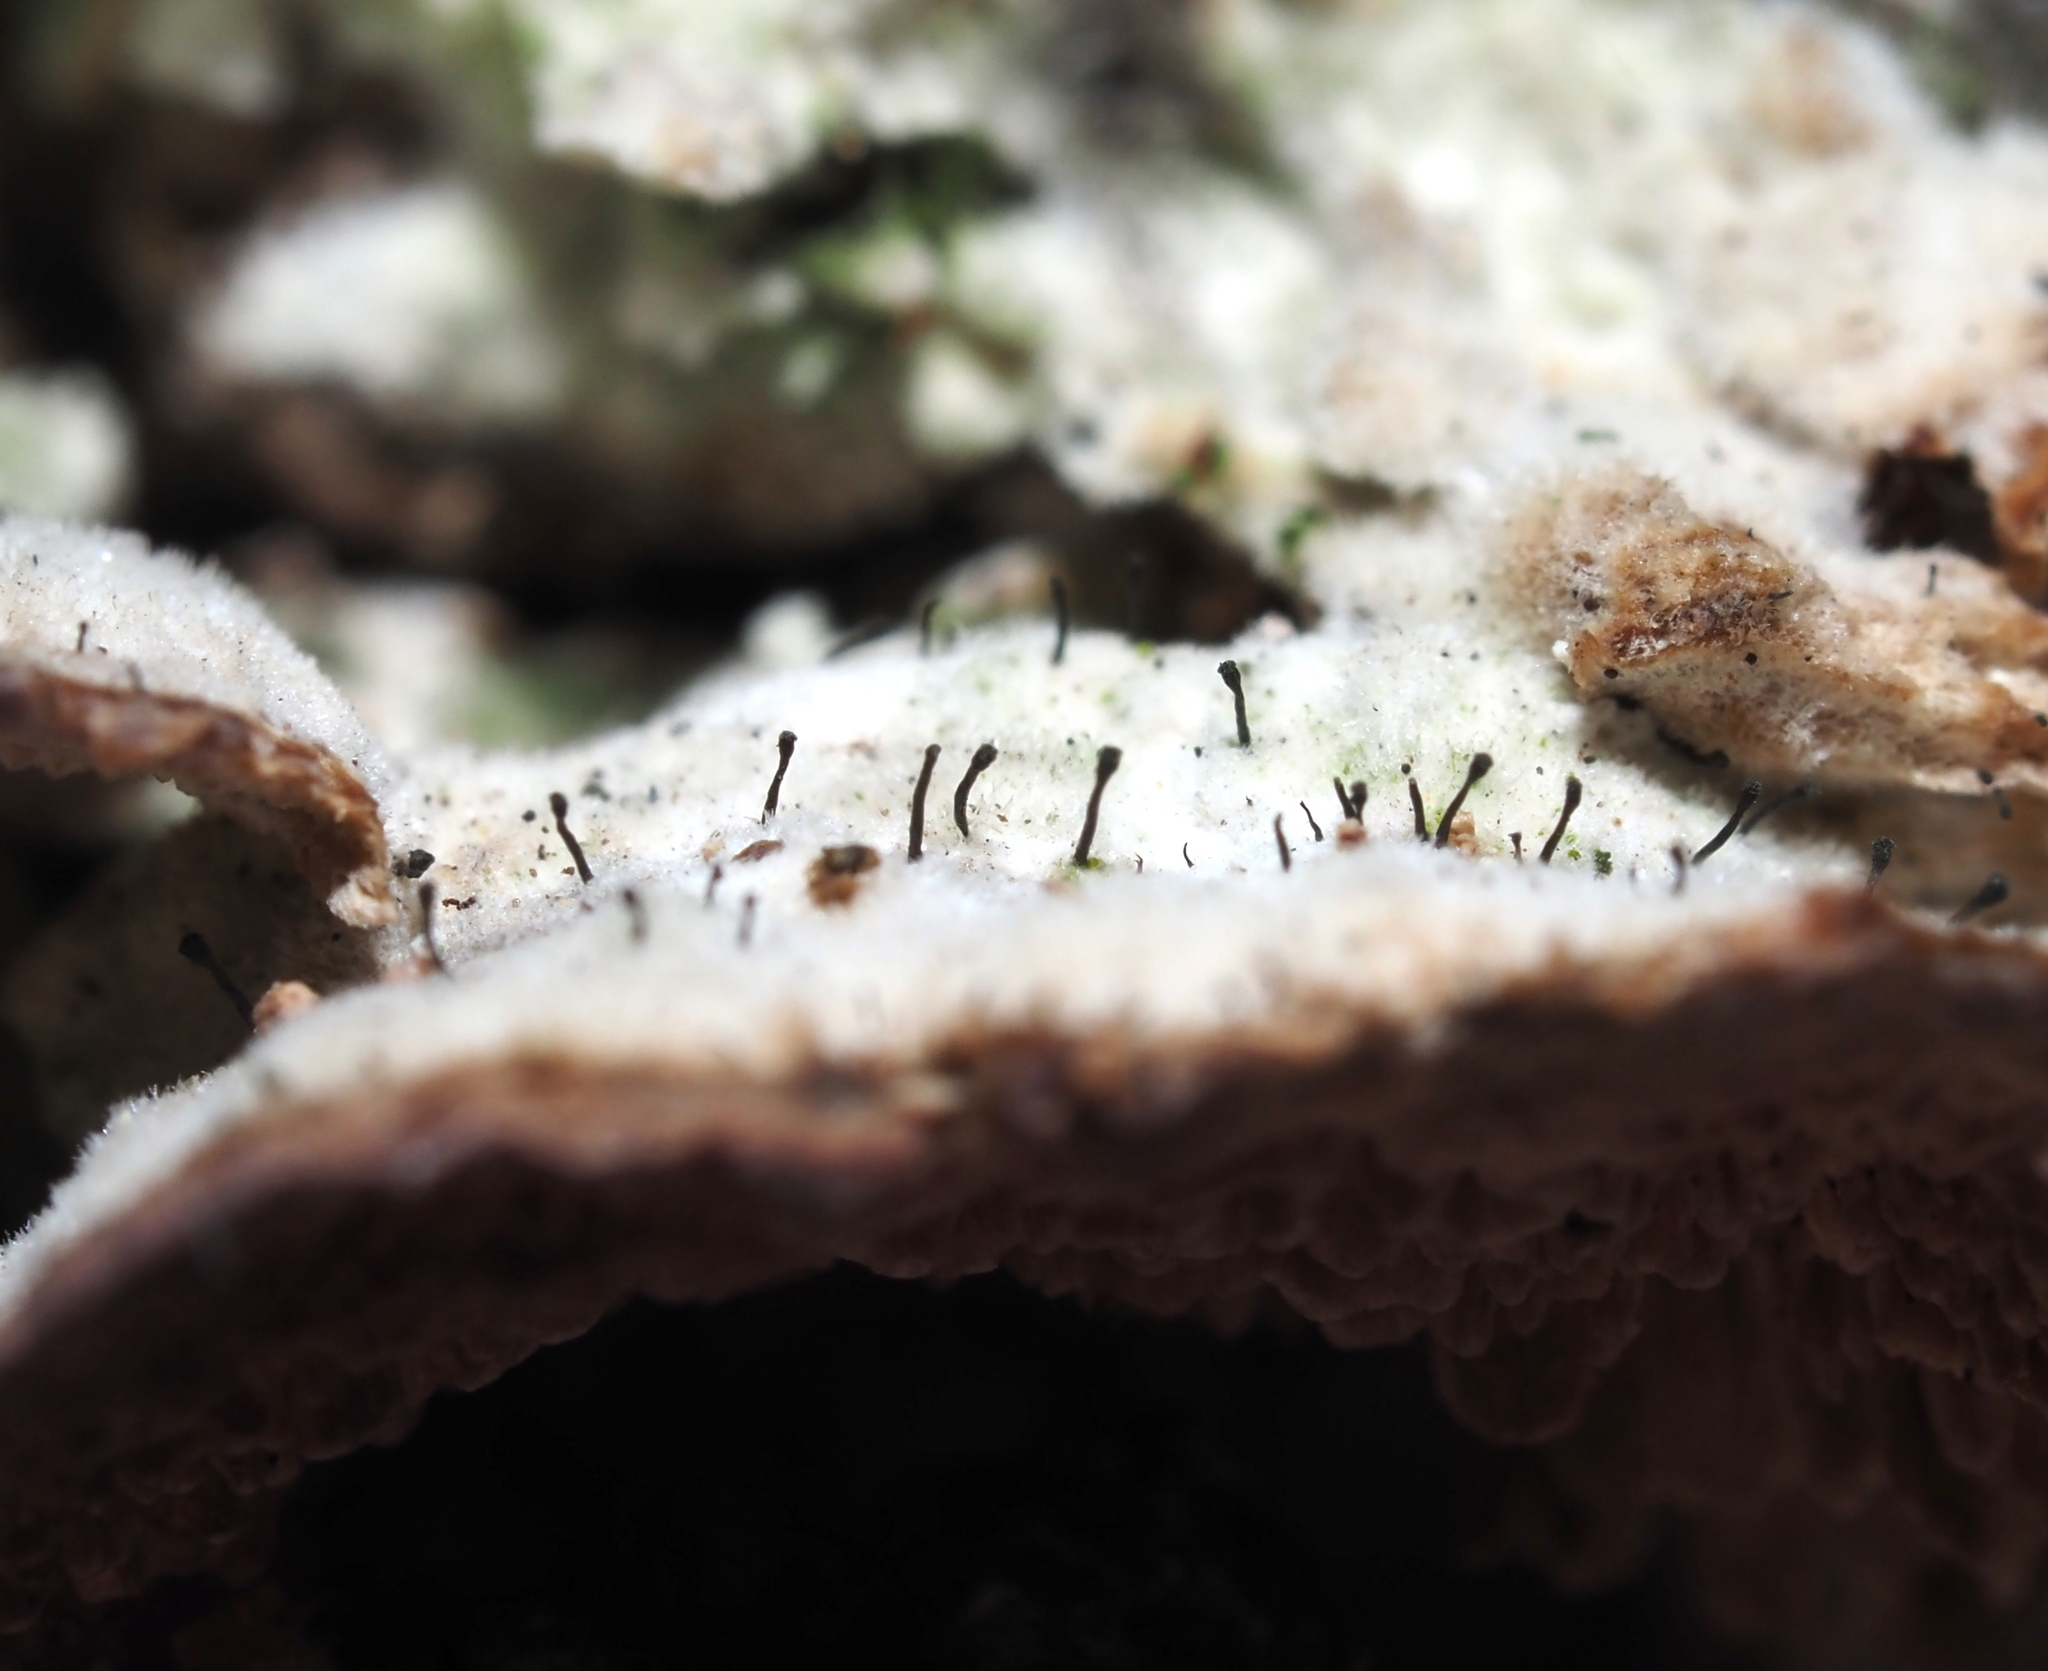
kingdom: Fungi
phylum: Ascomycota
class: Eurotiomycetes
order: Mycocaliciales
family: Mycocaliciaceae
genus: Phaeocalicium
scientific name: Phaeocalicium polyporaeum
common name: Fairy pins
